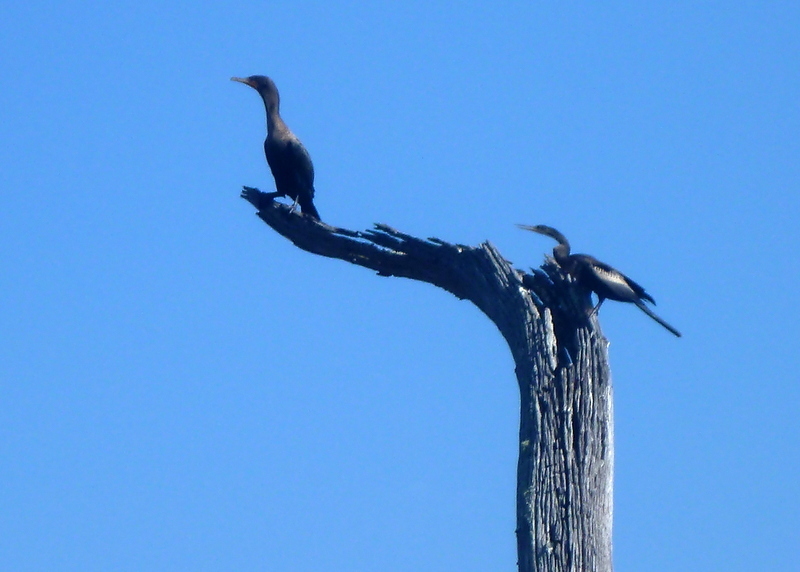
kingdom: Animalia
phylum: Chordata
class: Aves
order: Suliformes
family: Anhingidae
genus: Anhinga
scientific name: Anhinga anhinga
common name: Anhinga
